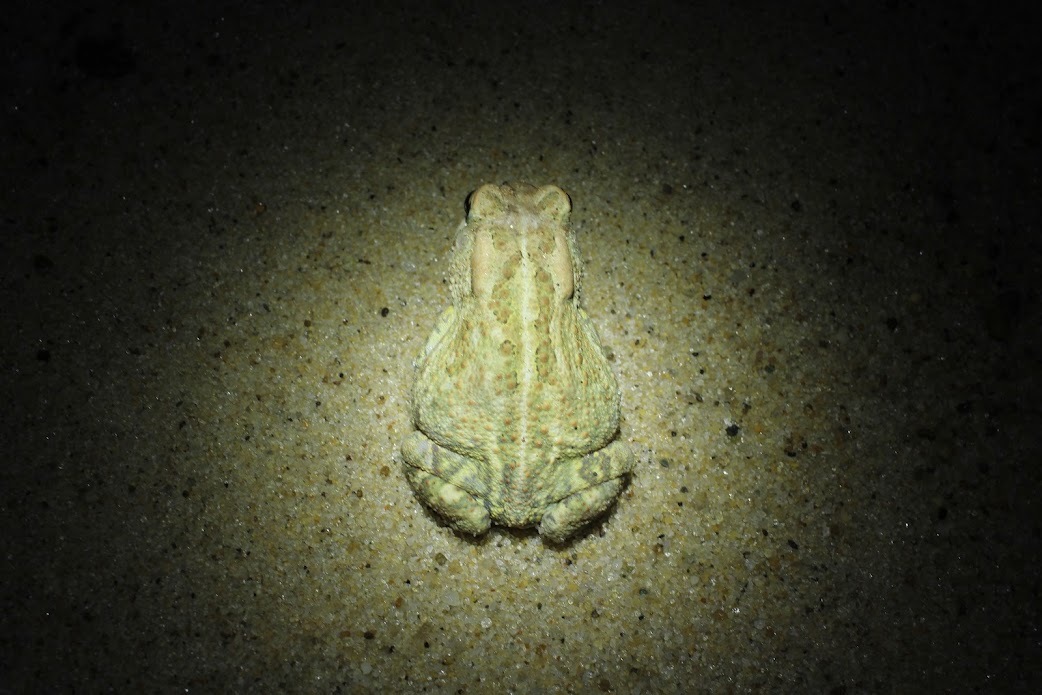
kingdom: Animalia
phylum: Chordata
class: Amphibia
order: Anura
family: Bufonidae
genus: Anaxyrus
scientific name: Anaxyrus fowleri
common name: Fowler's toad
